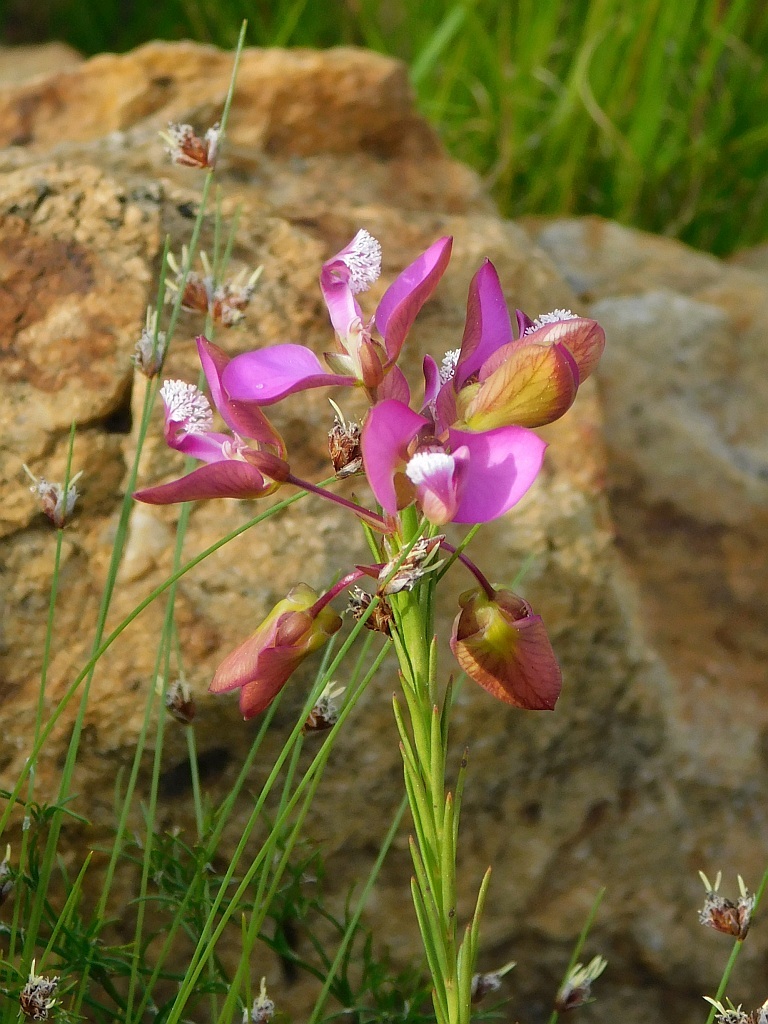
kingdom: Plantae
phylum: Tracheophyta
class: Magnoliopsida
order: Fabales
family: Polygalaceae
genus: Polygala
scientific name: Polygala umbellata
